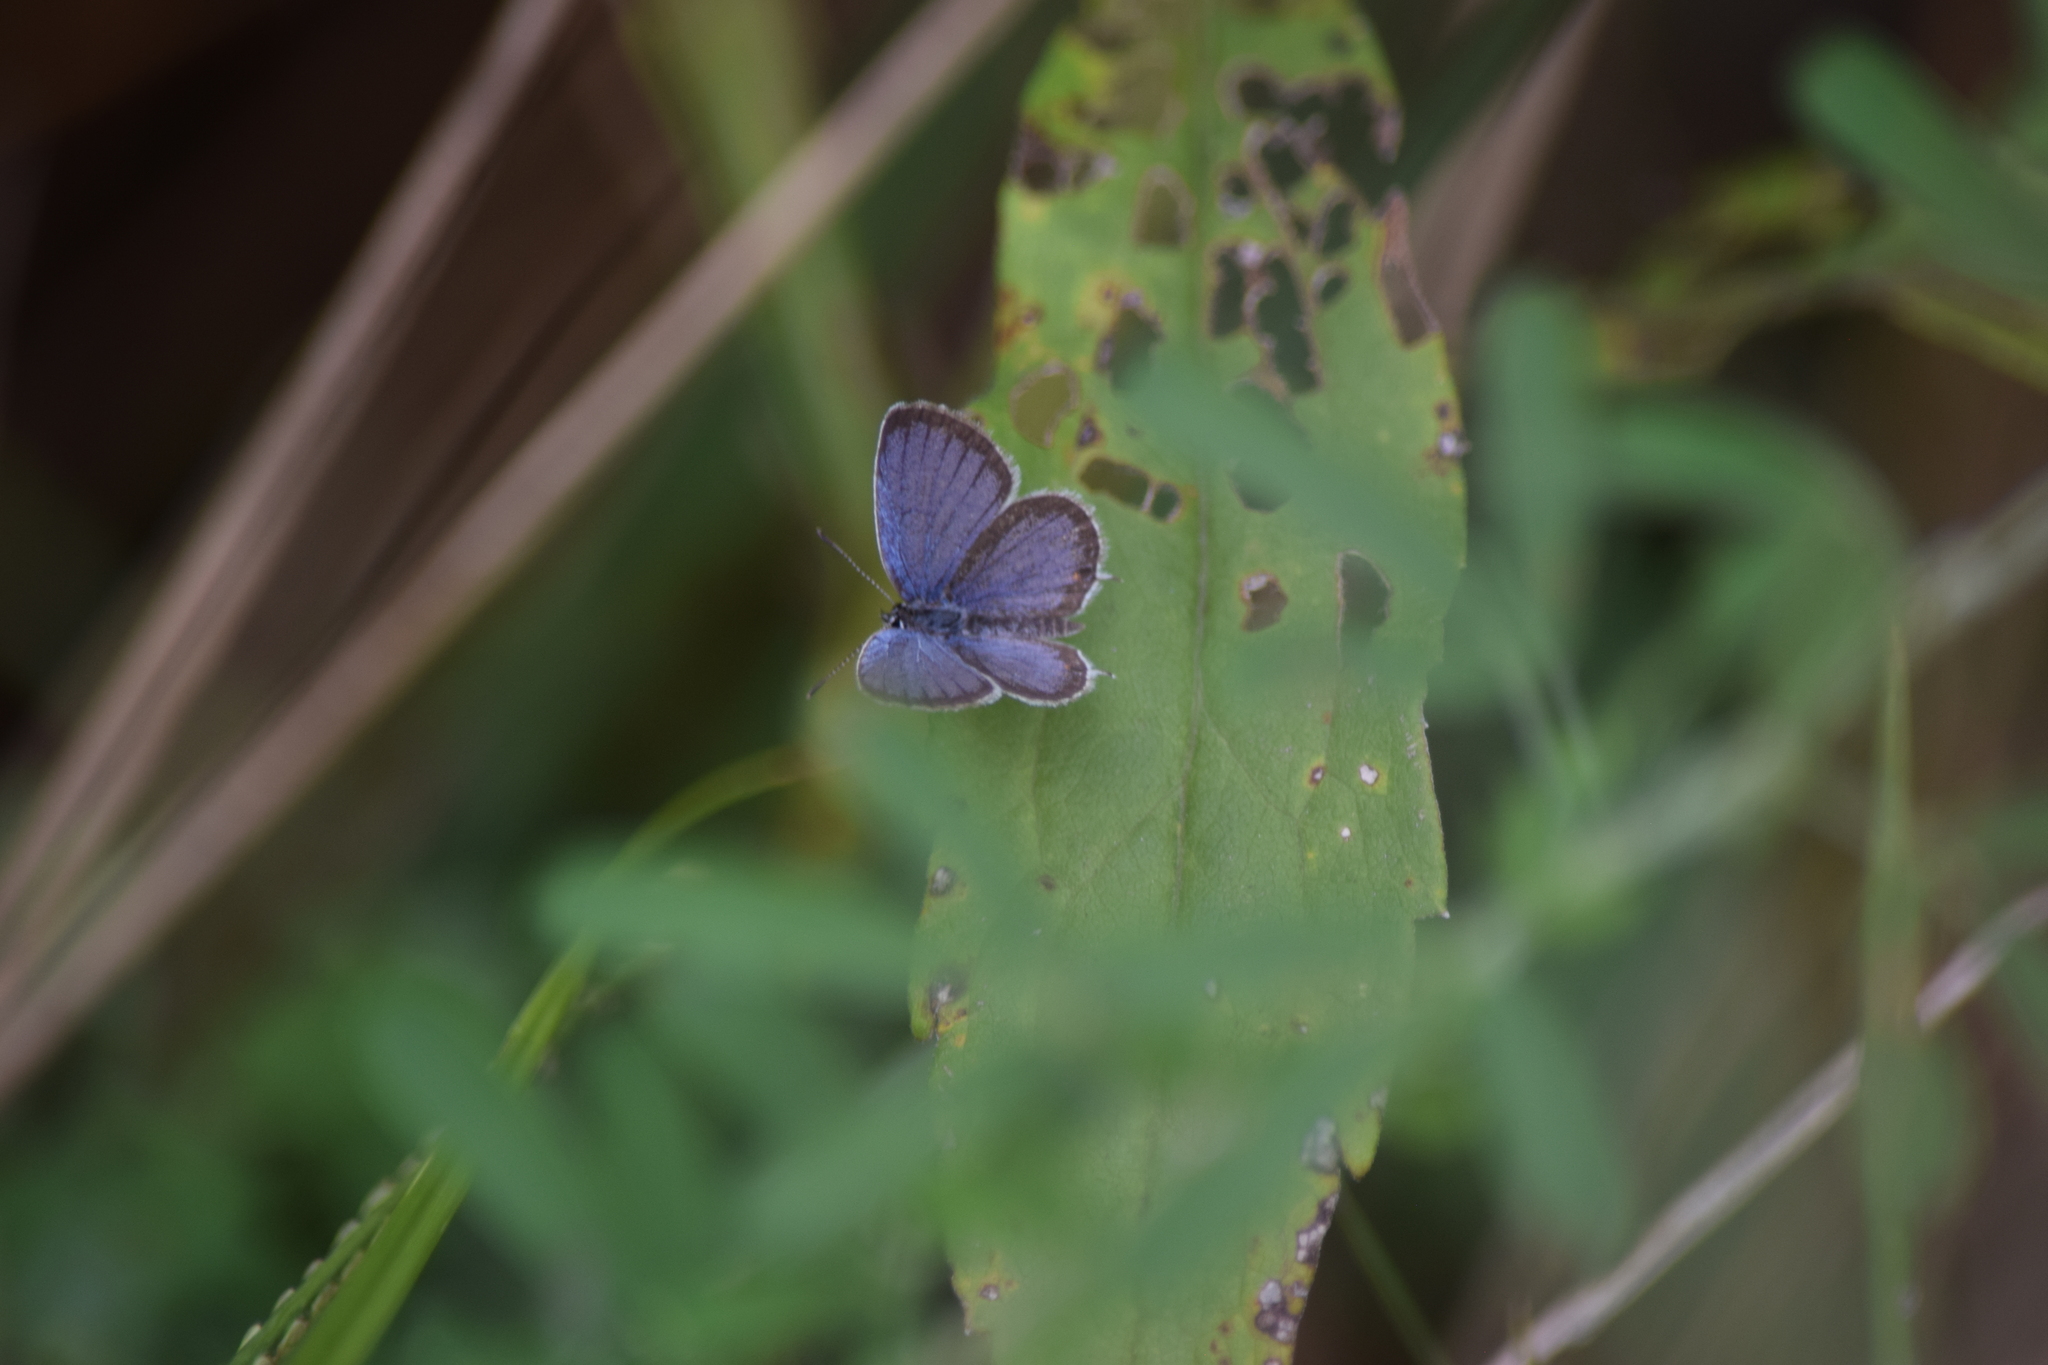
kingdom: Animalia
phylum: Arthropoda
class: Insecta
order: Lepidoptera
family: Lycaenidae
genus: Elkalyce
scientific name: Elkalyce comyntas
